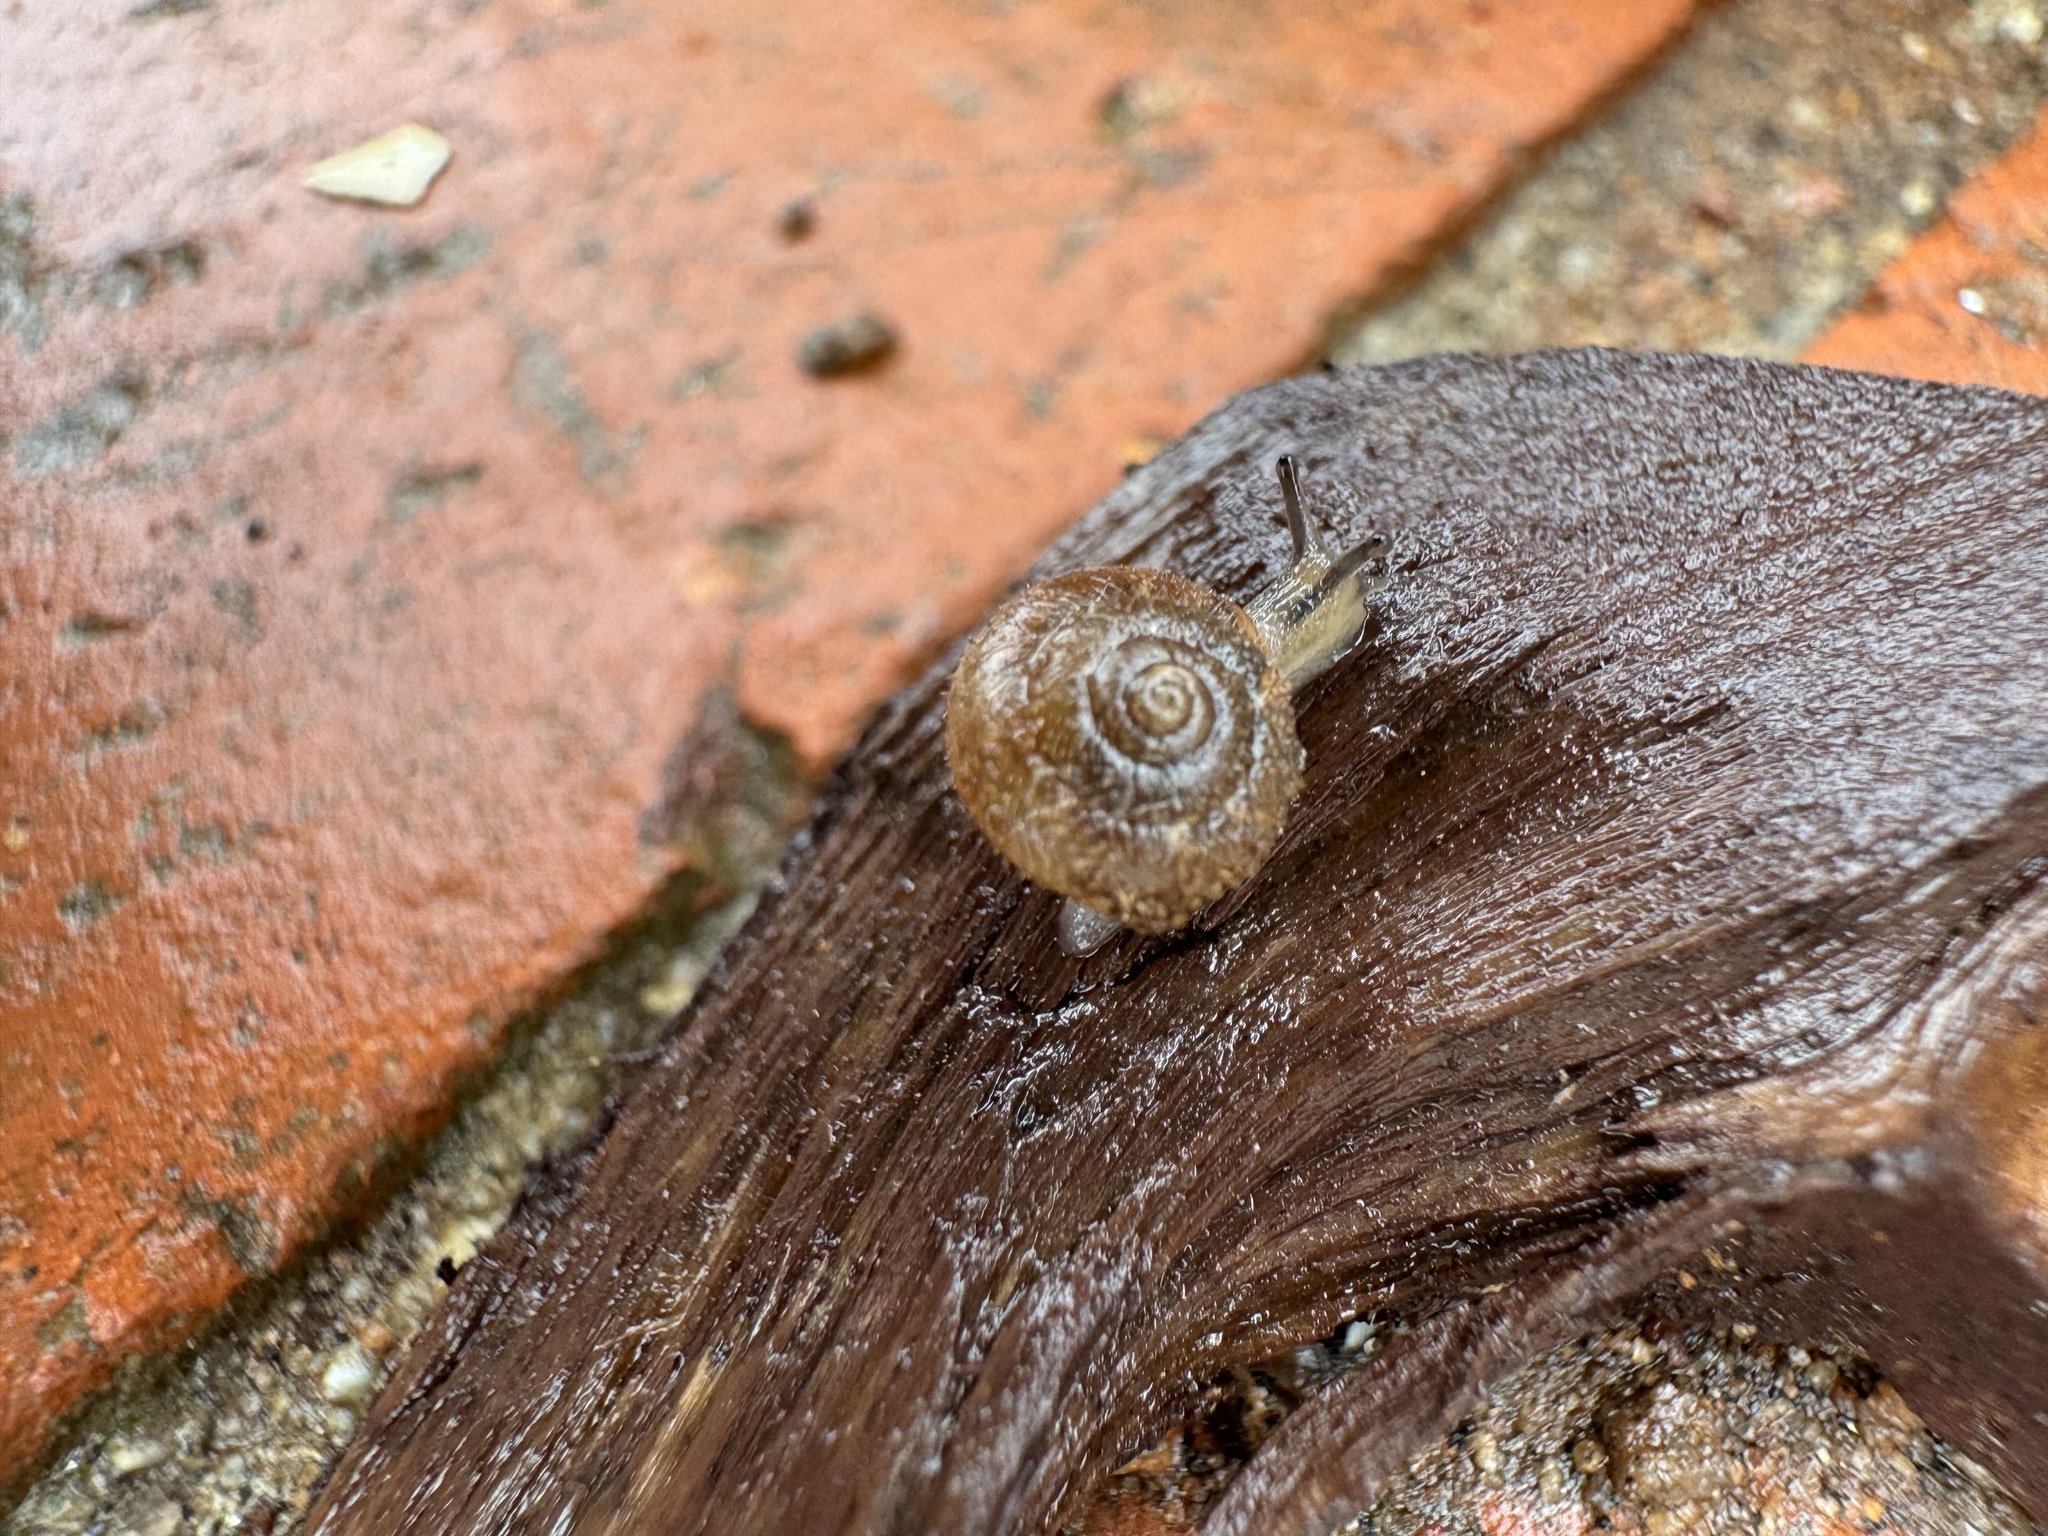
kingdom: Animalia
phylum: Mollusca
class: Gastropoda
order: Stylommatophora
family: Geomitridae
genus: Xerotricha
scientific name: Xerotricha conspurcata
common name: Snail
